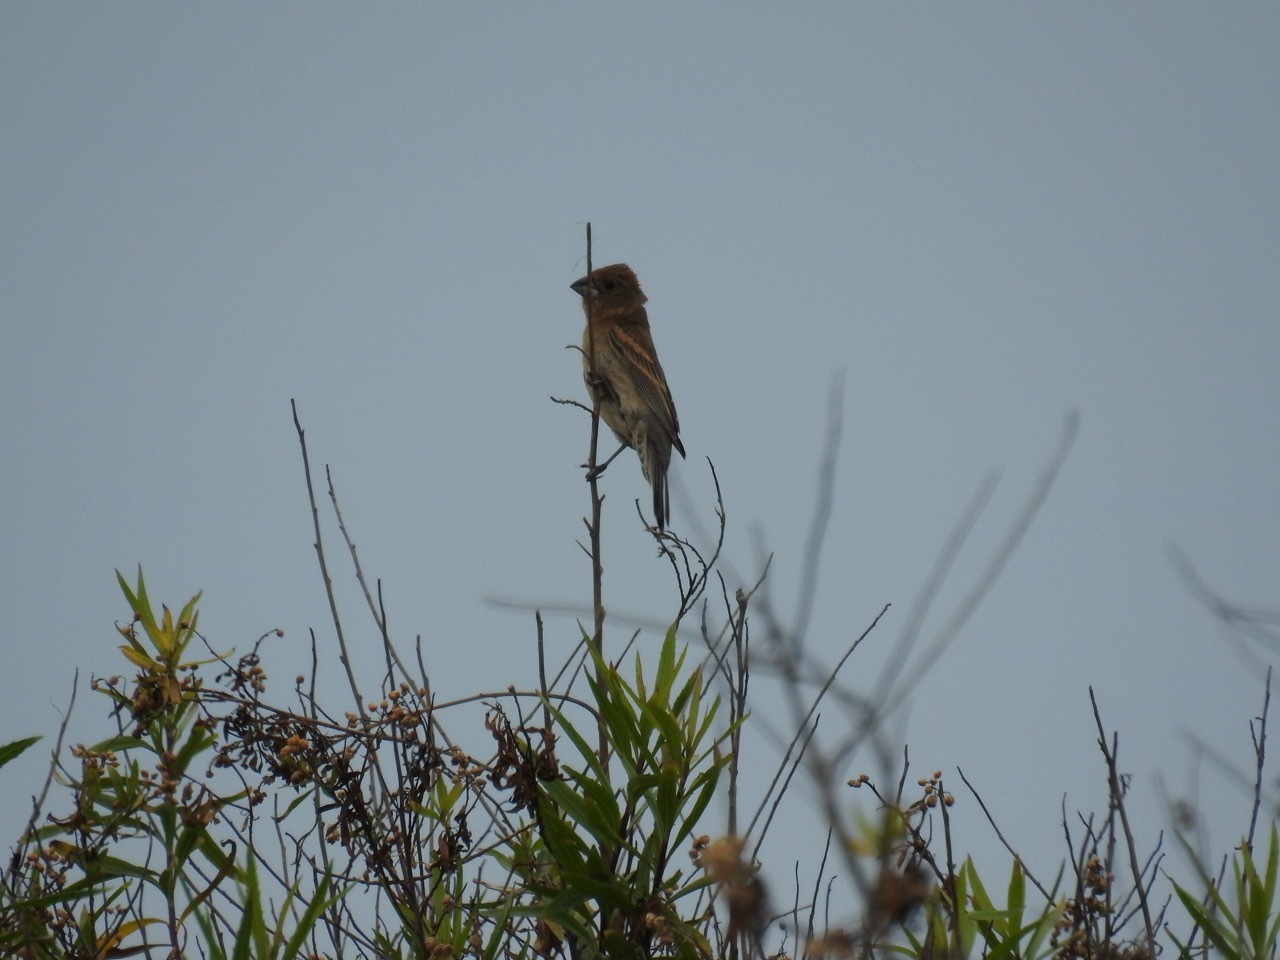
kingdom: Animalia
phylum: Chordata
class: Aves
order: Passeriformes
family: Cardinalidae
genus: Passerina
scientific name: Passerina caerulea
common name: Blue grosbeak
